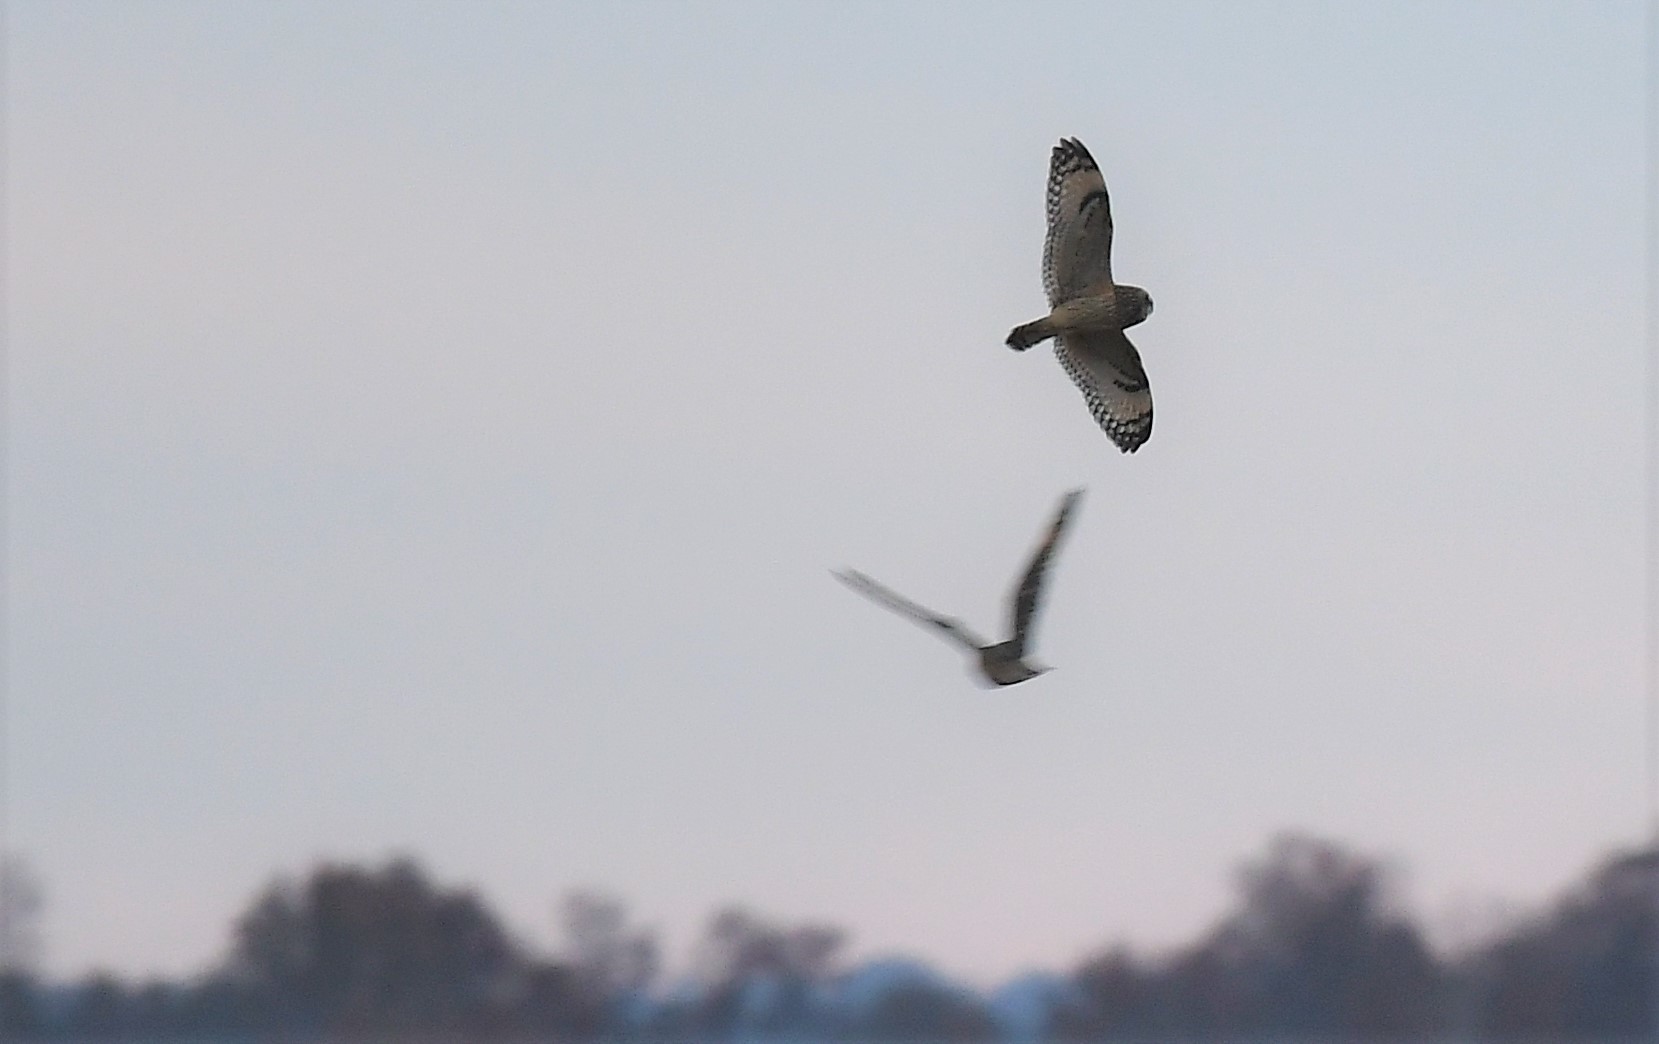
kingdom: Animalia
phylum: Chordata
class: Aves
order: Strigiformes
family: Strigidae
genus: Asio
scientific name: Asio flammeus
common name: Short-eared owl
